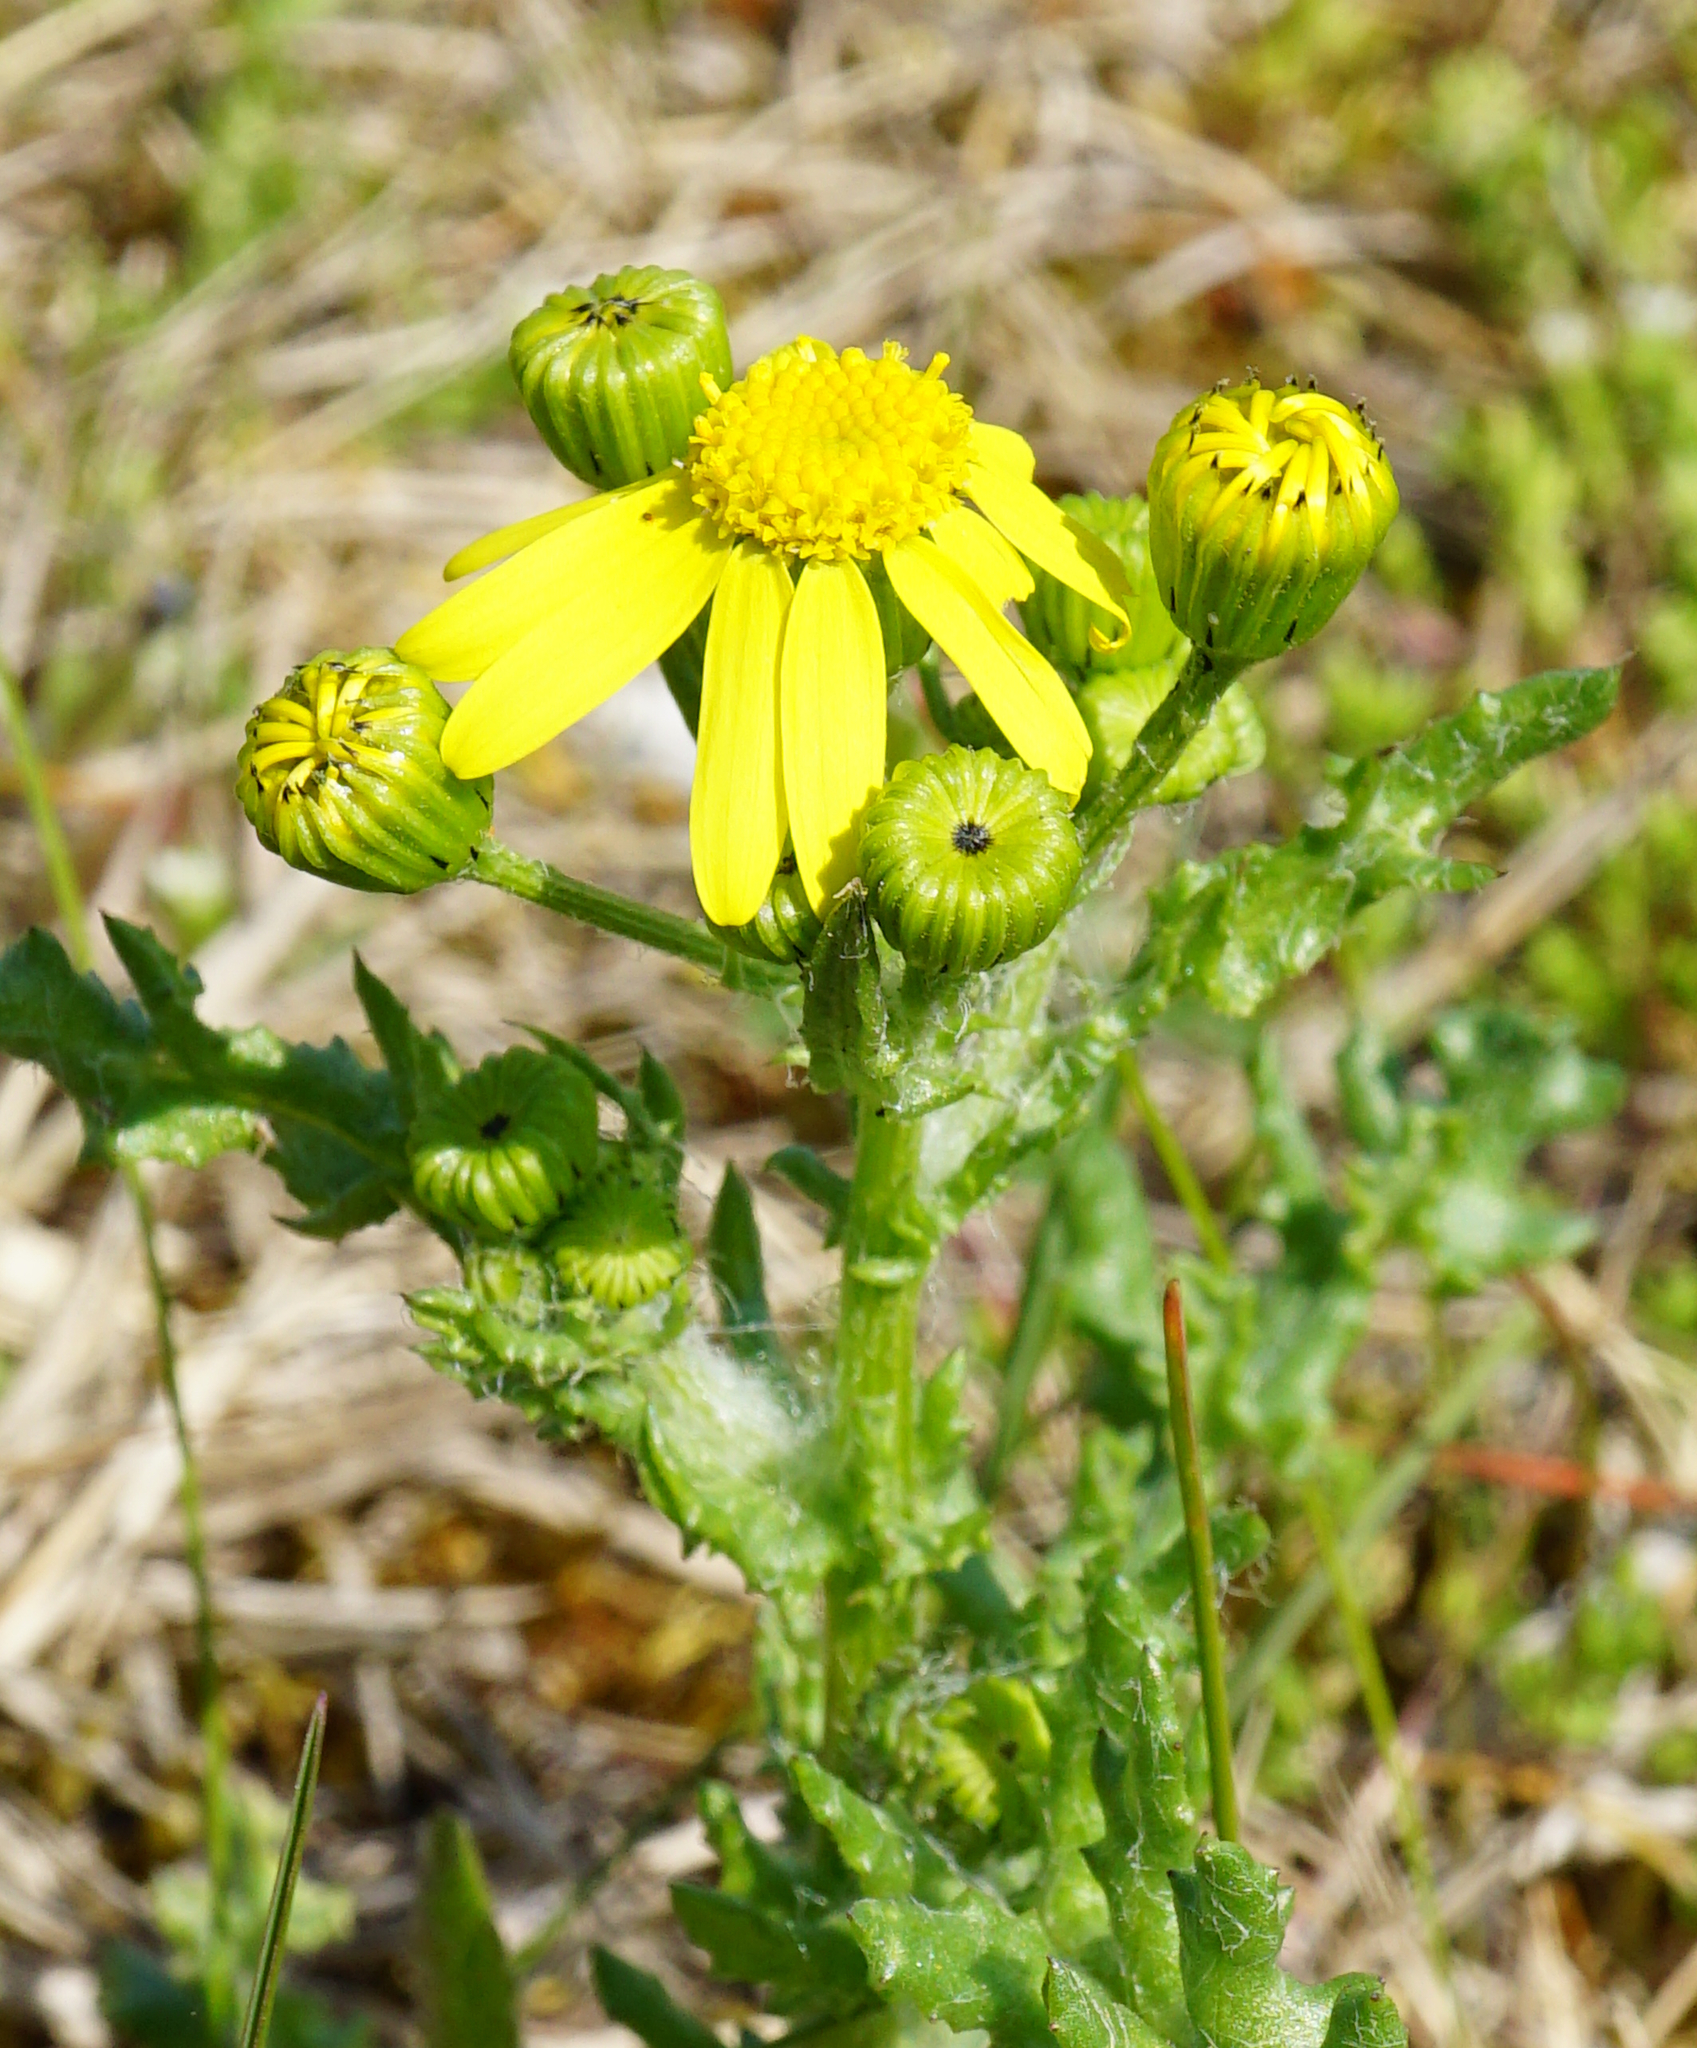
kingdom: Plantae
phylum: Tracheophyta
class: Magnoliopsida
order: Asterales
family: Asteraceae
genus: Senecio
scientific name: Senecio vernalis
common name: Eastern groundsel
